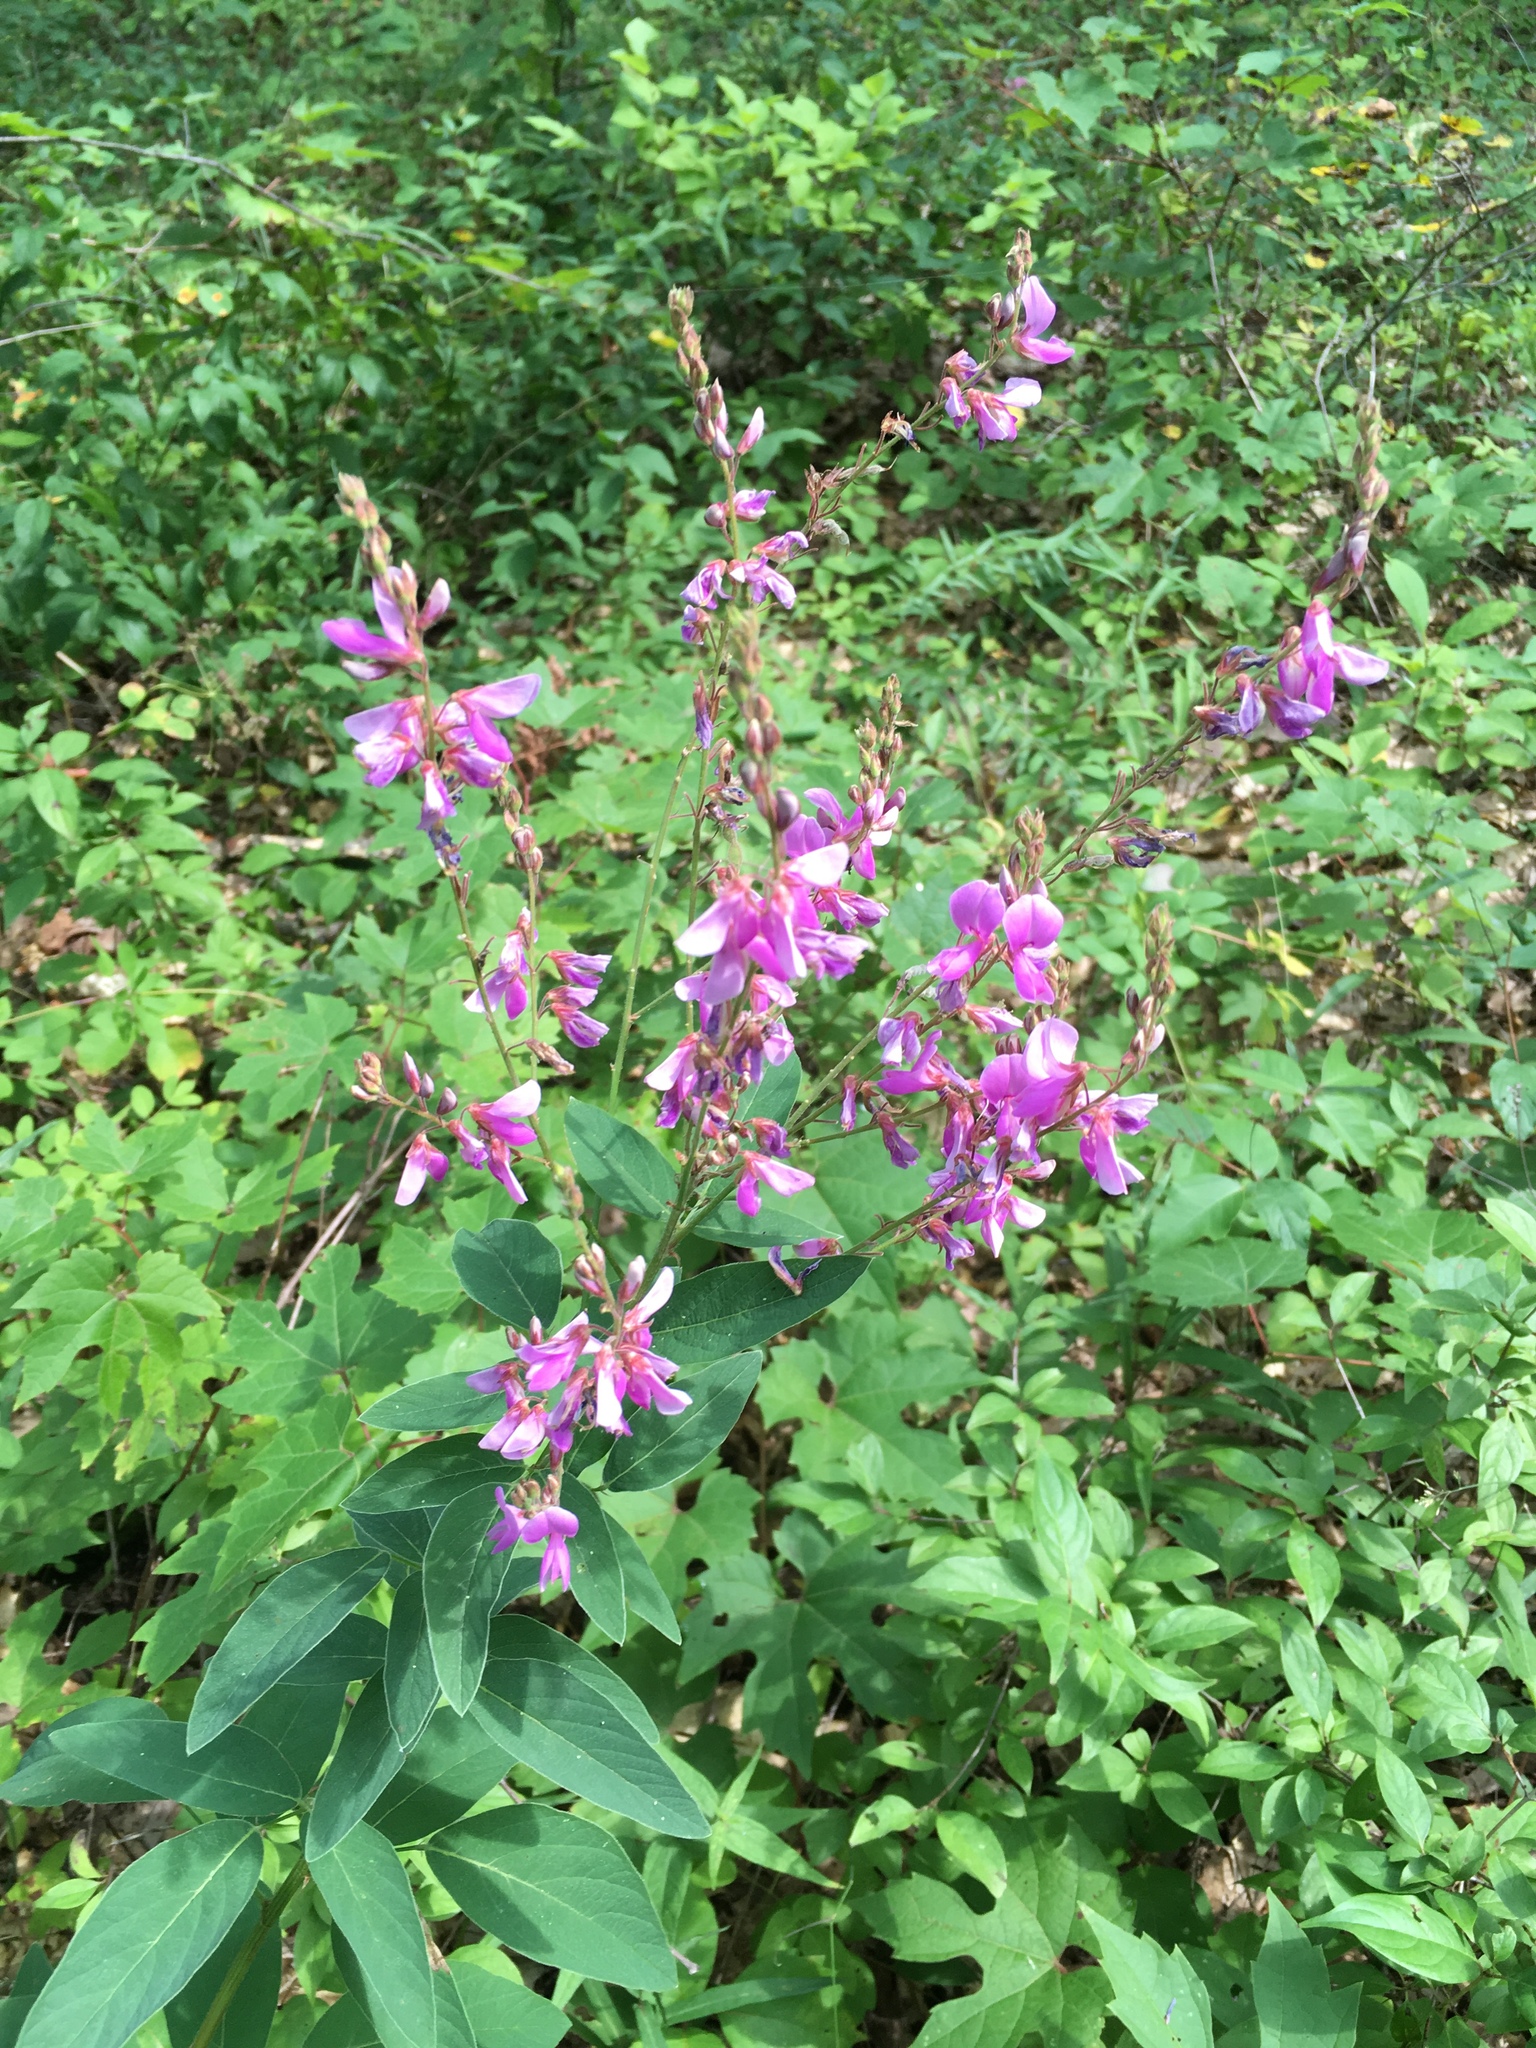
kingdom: Plantae
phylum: Tracheophyta
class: Magnoliopsida
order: Fabales
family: Fabaceae
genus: Desmodium
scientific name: Desmodium canadense
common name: Canada tick-trefoil
